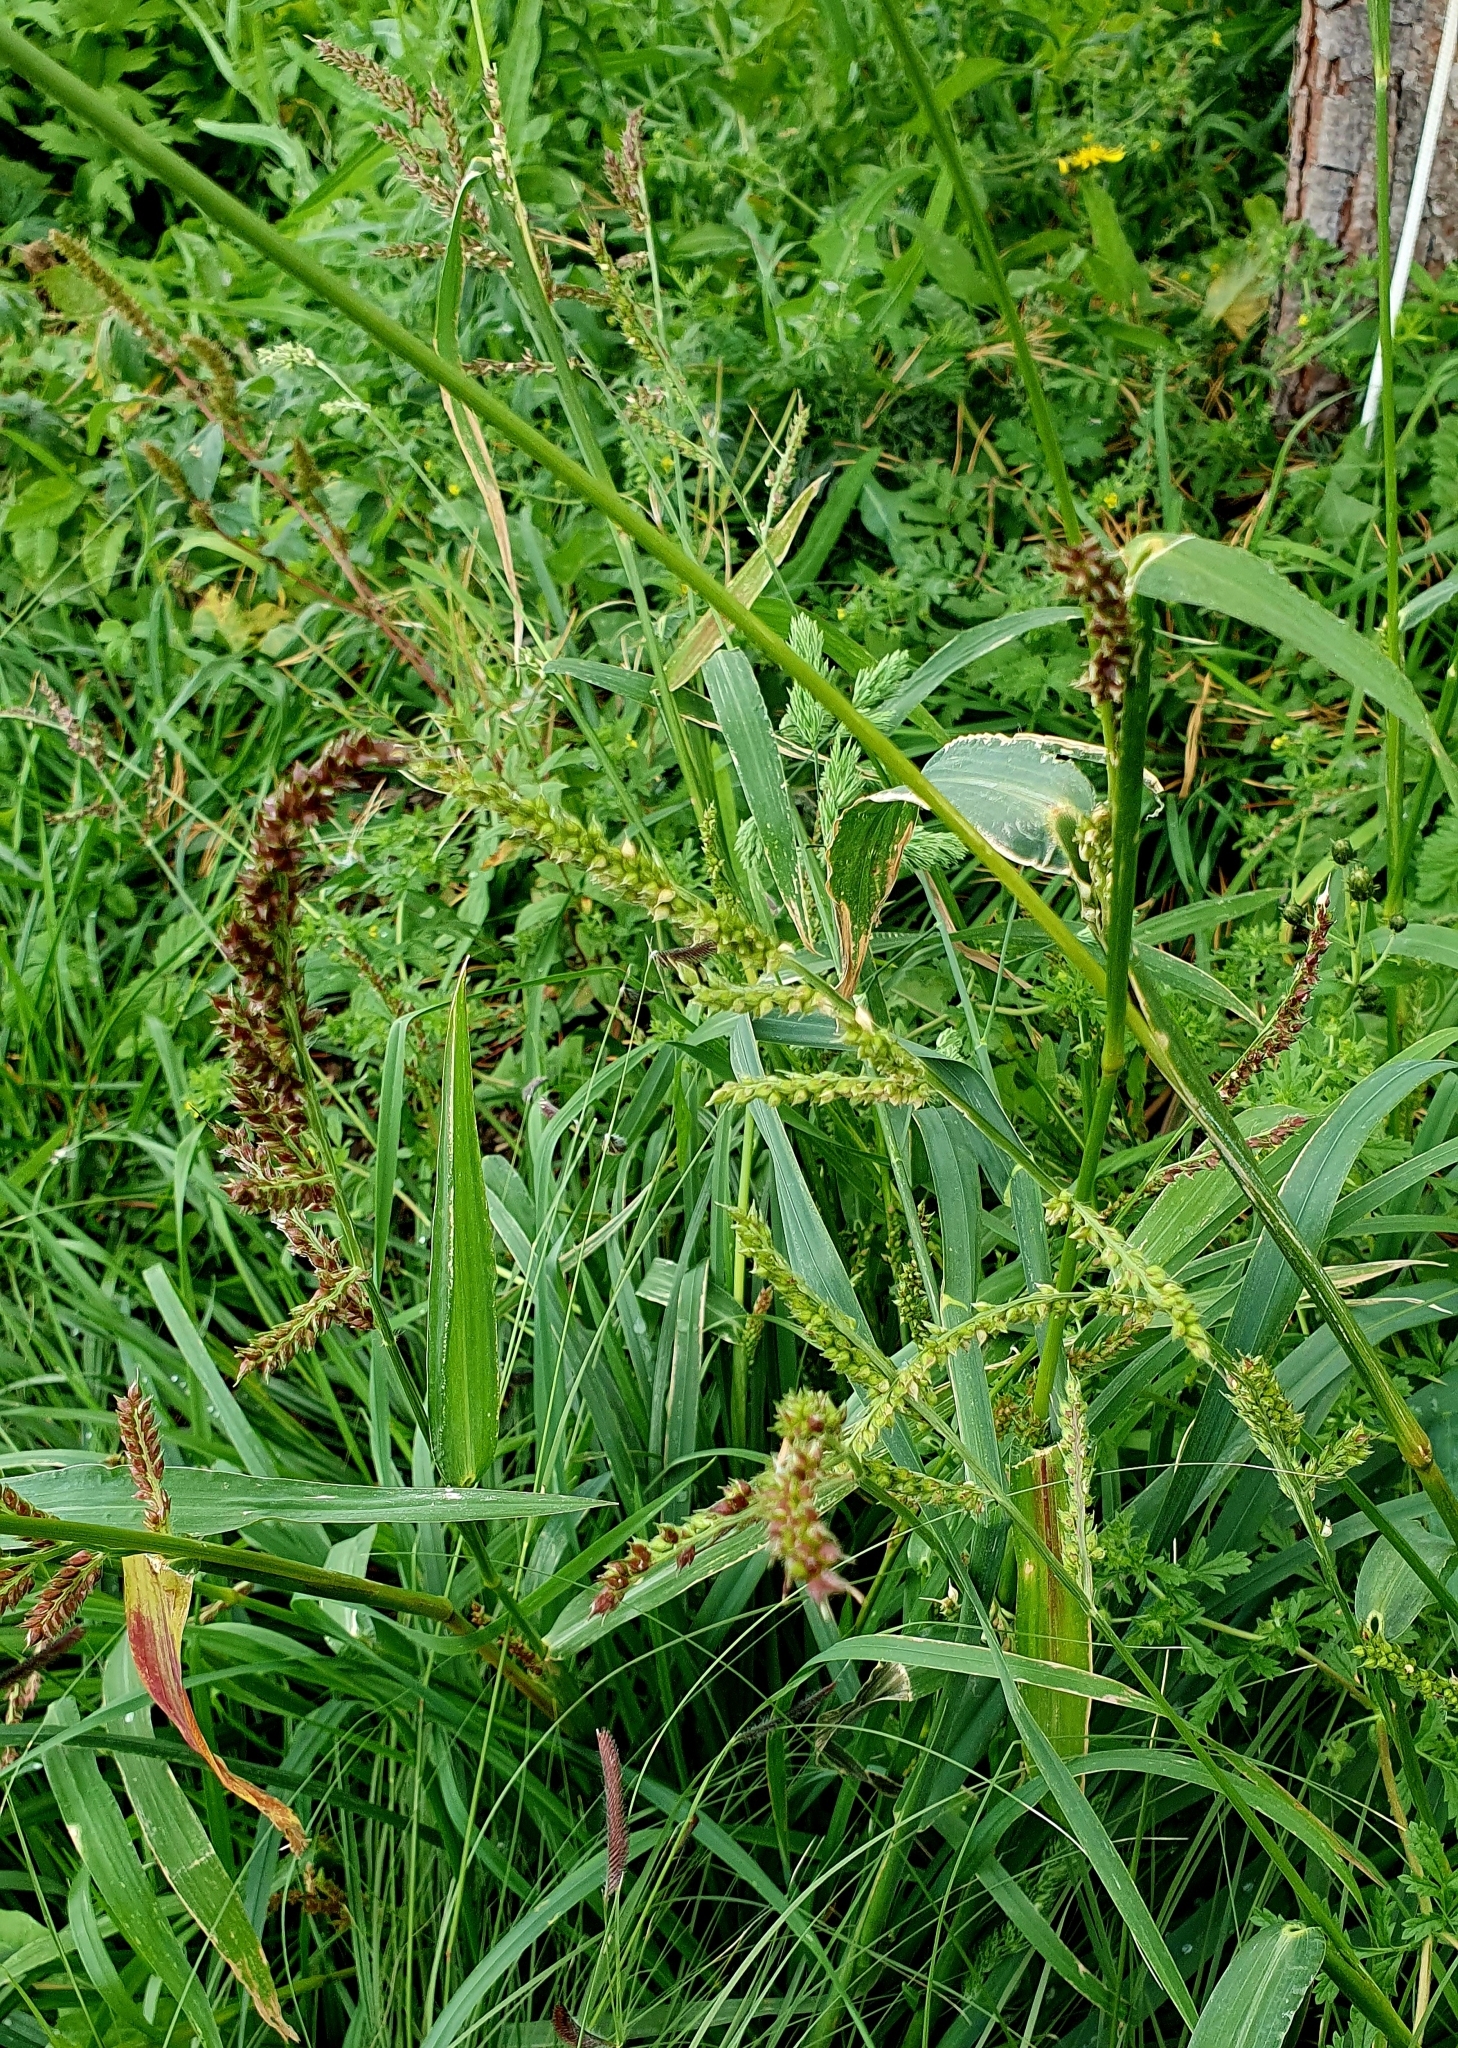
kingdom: Plantae
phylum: Tracheophyta
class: Liliopsida
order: Poales
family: Poaceae
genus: Echinochloa
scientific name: Echinochloa crus-galli
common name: Cockspur
